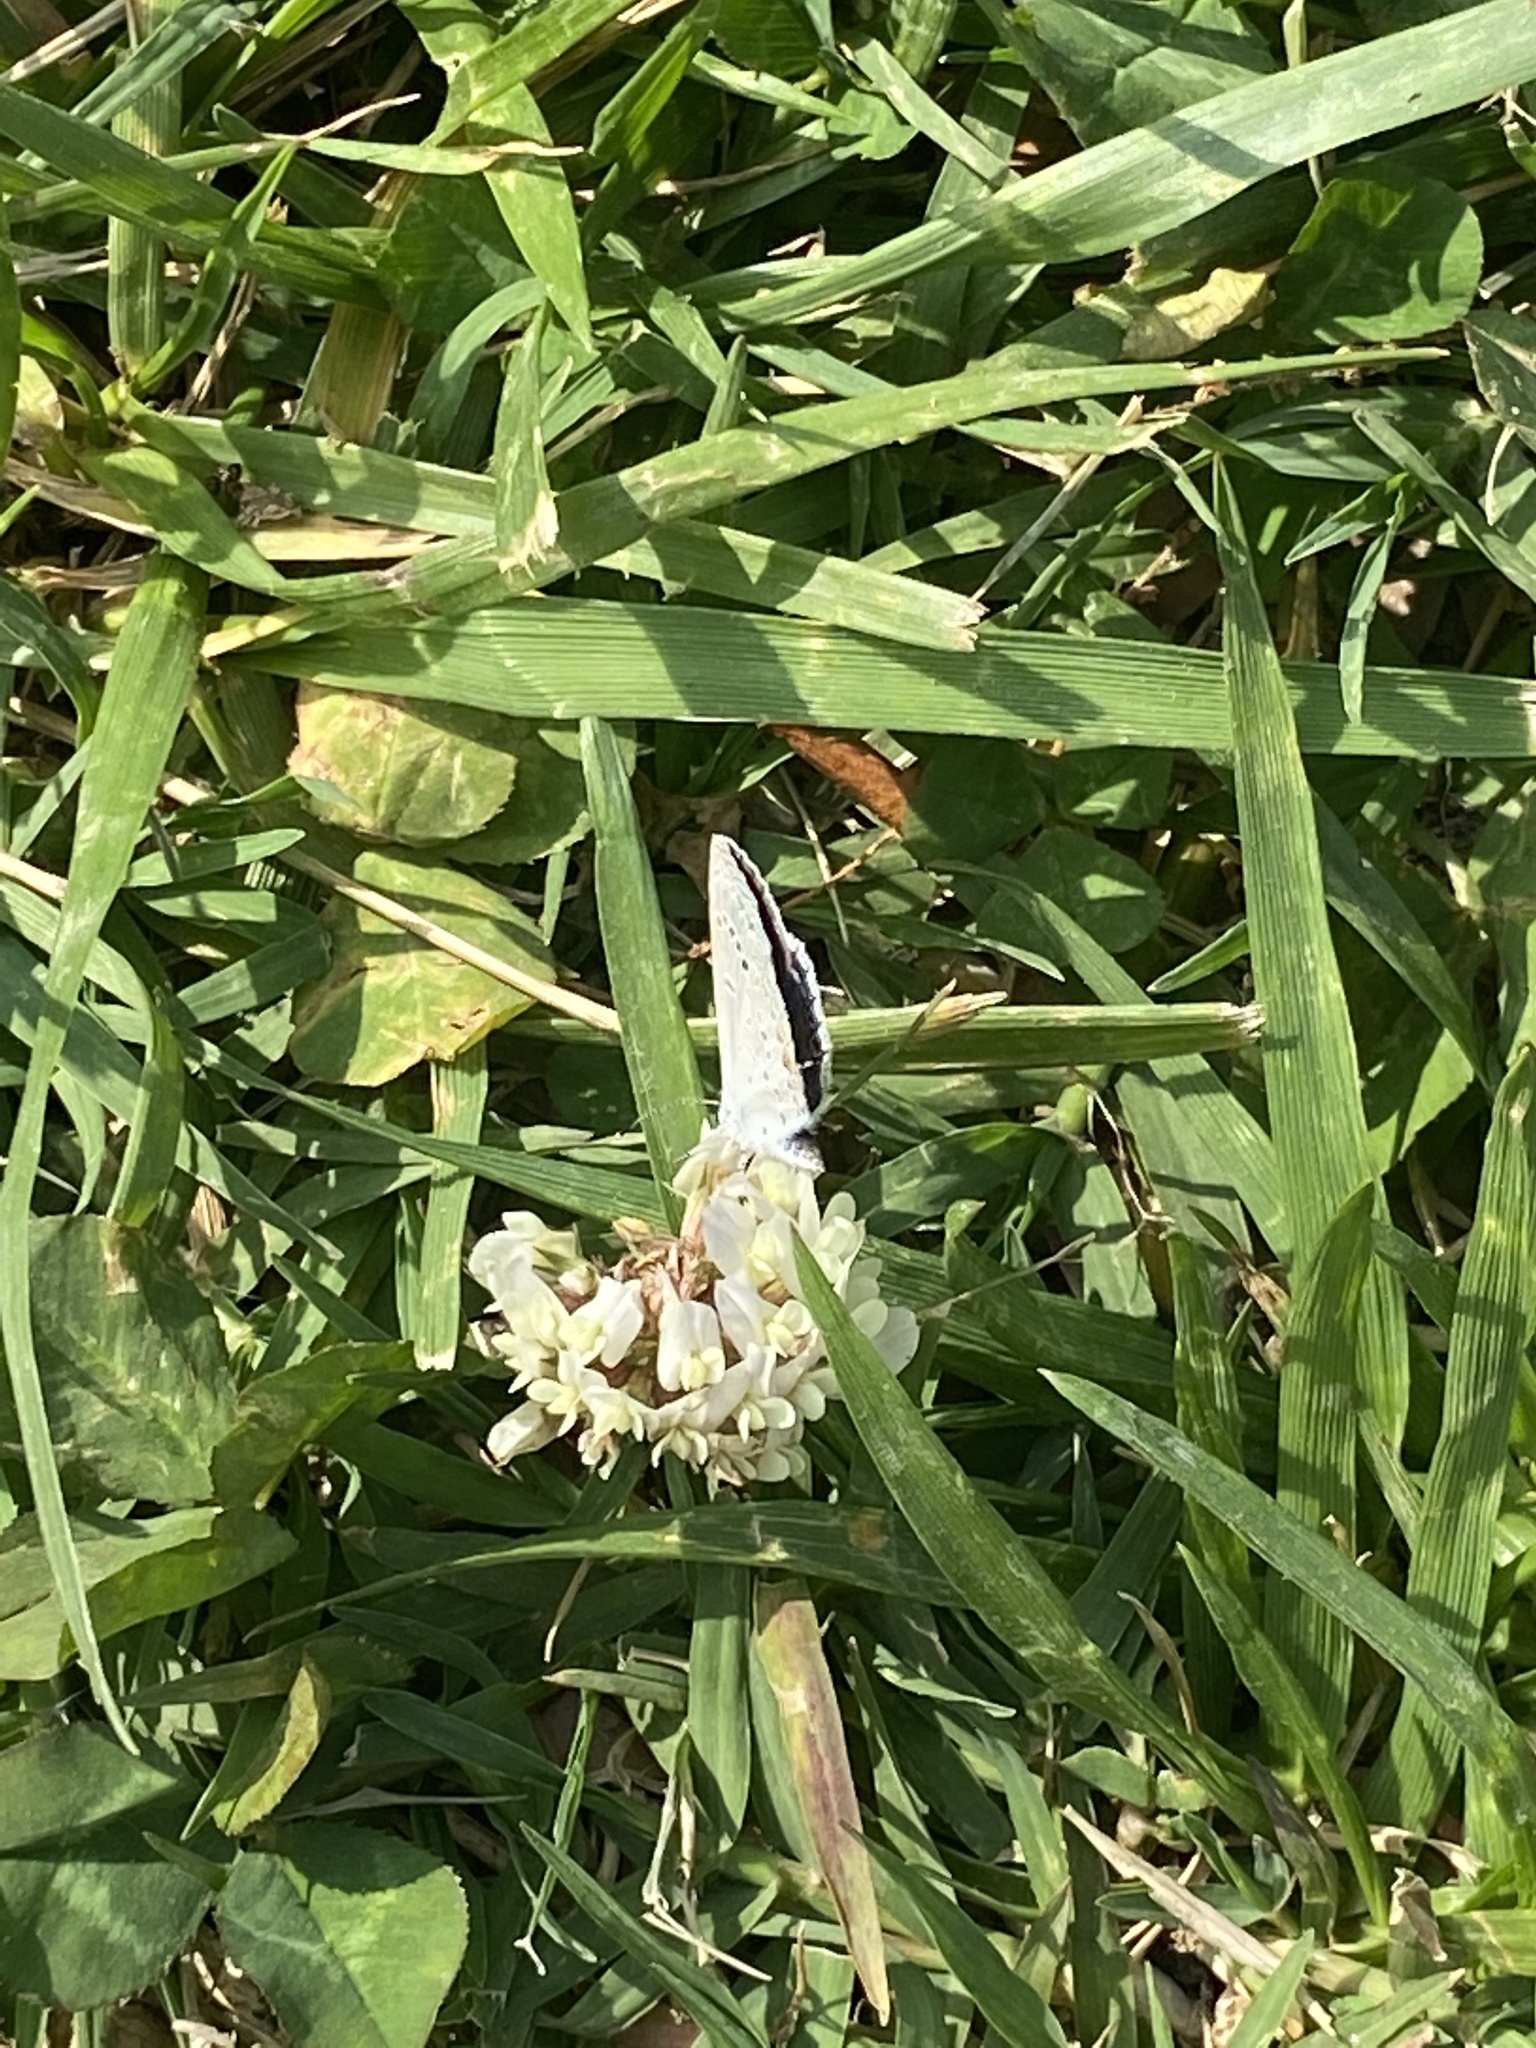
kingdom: Animalia
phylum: Arthropoda
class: Insecta
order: Lepidoptera
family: Lycaenidae
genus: Elkalyce
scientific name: Elkalyce comyntas
